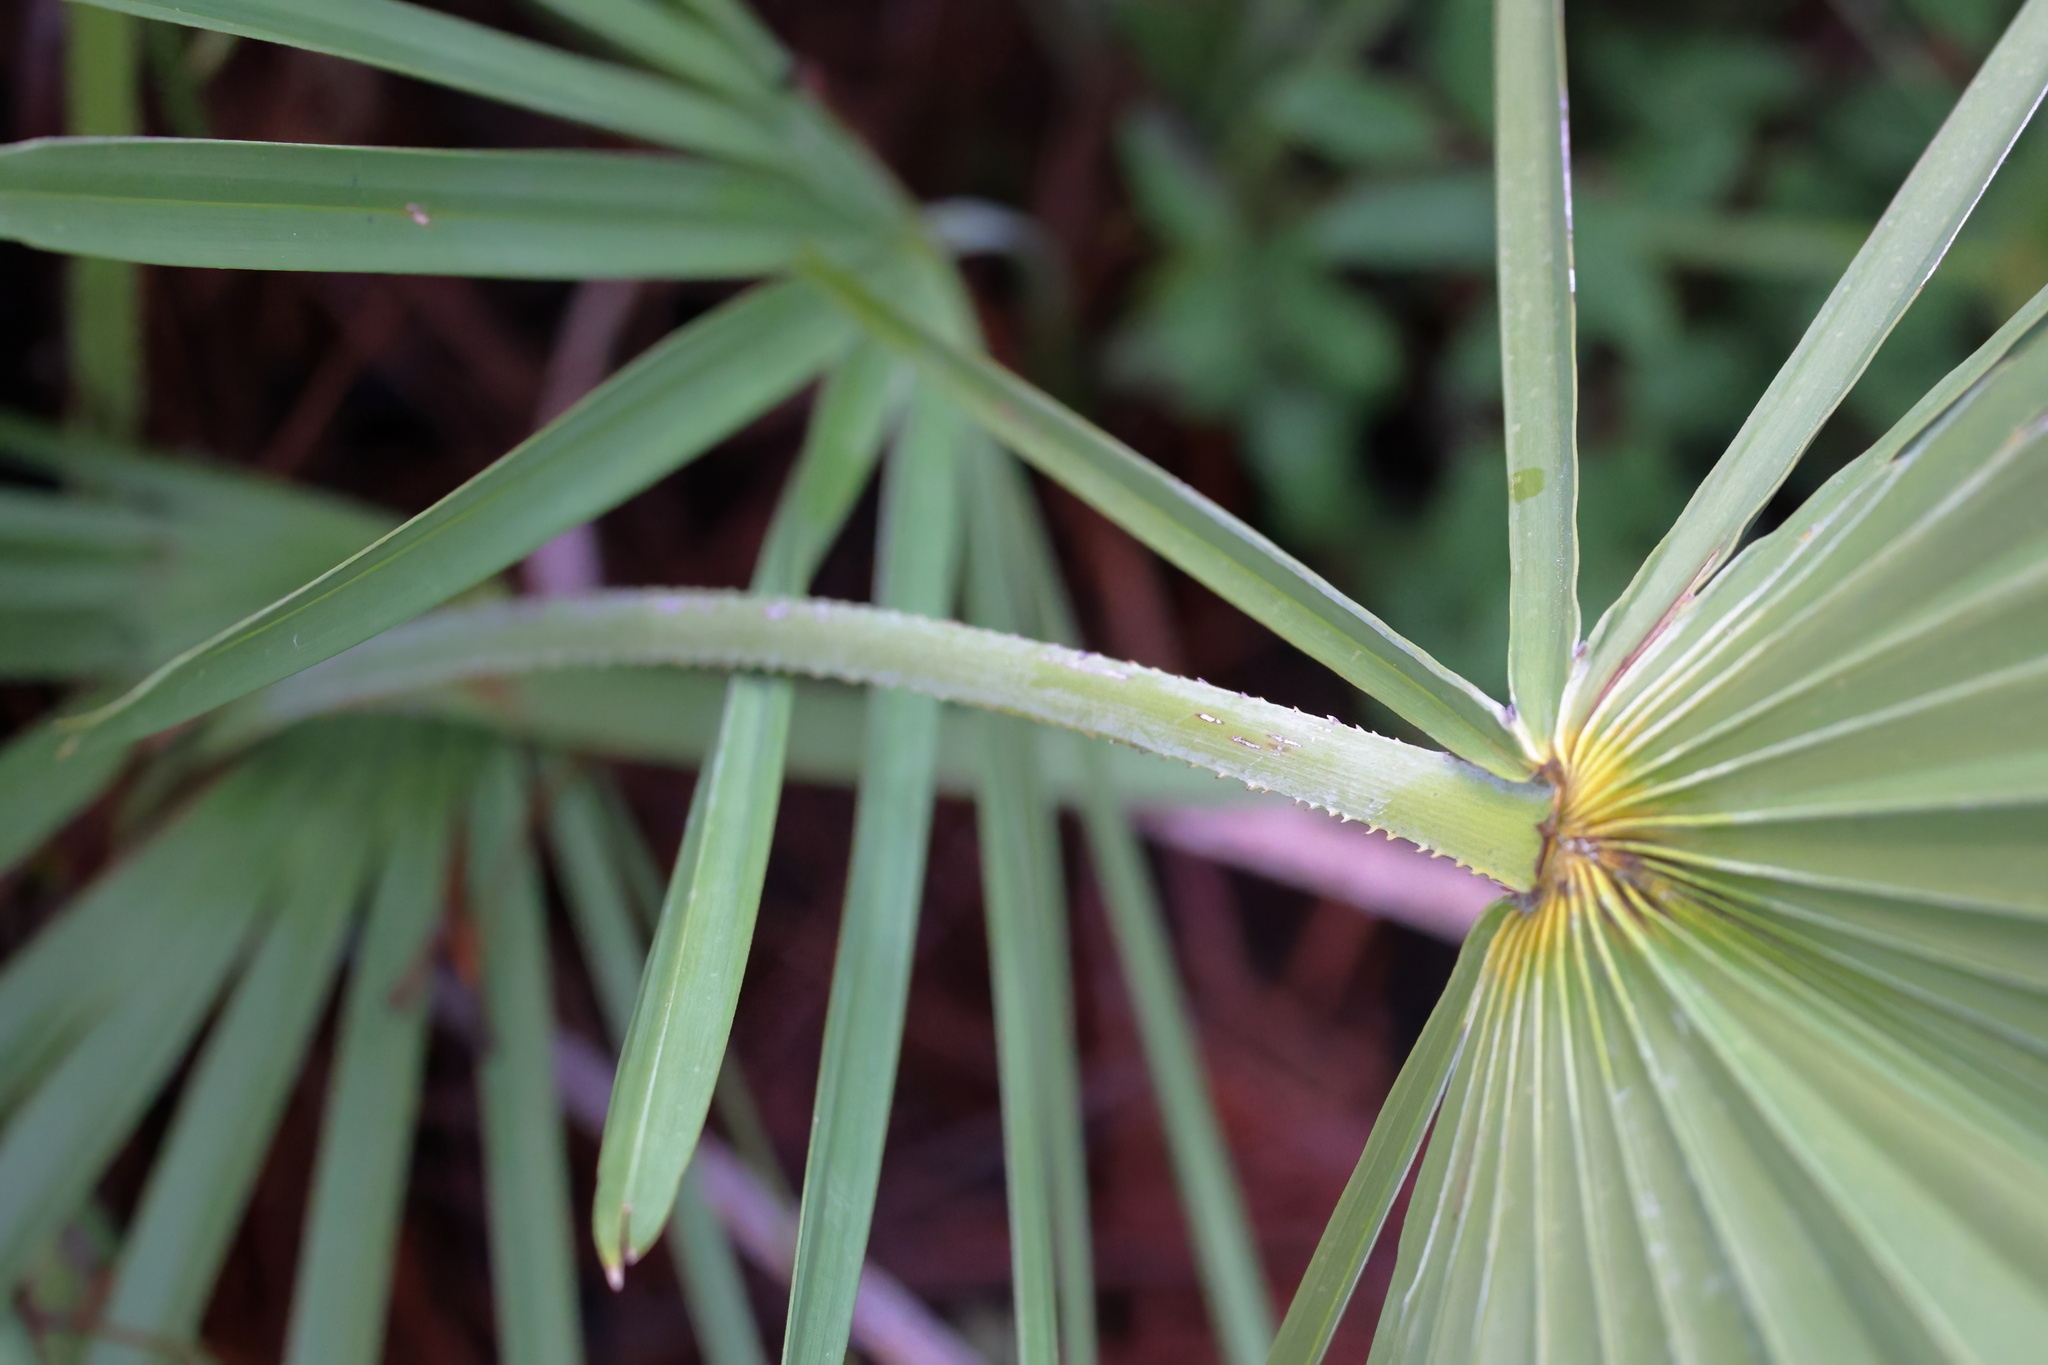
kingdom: Plantae
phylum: Tracheophyta
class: Liliopsida
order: Arecales
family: Arecaceae
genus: Serenoa
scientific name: Serenoa repens
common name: Saw-palmetto
